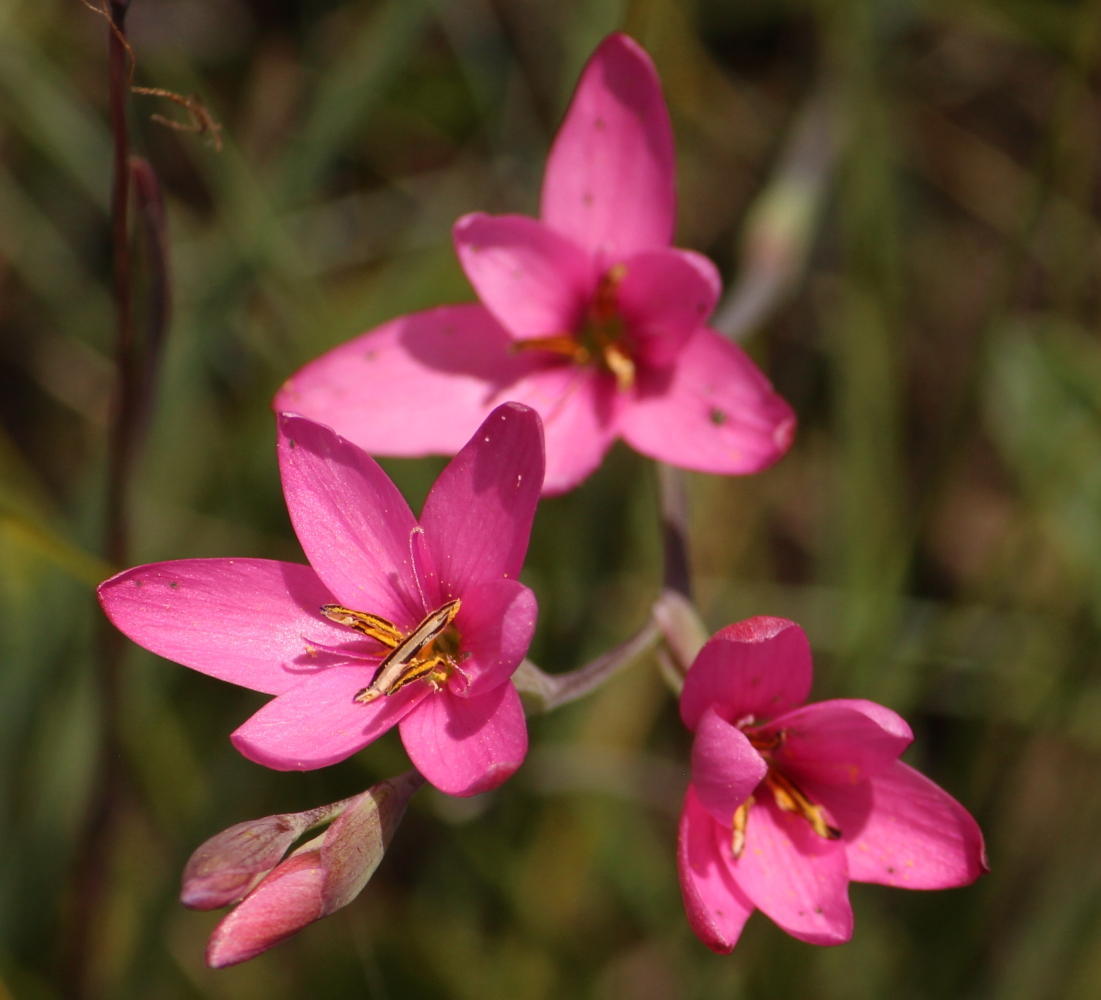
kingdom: Plantae
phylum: Tracheophyta
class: Liliopsida
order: Asparagales
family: Iridaceae
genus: Hesperantha
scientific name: Hesperantha baurii
